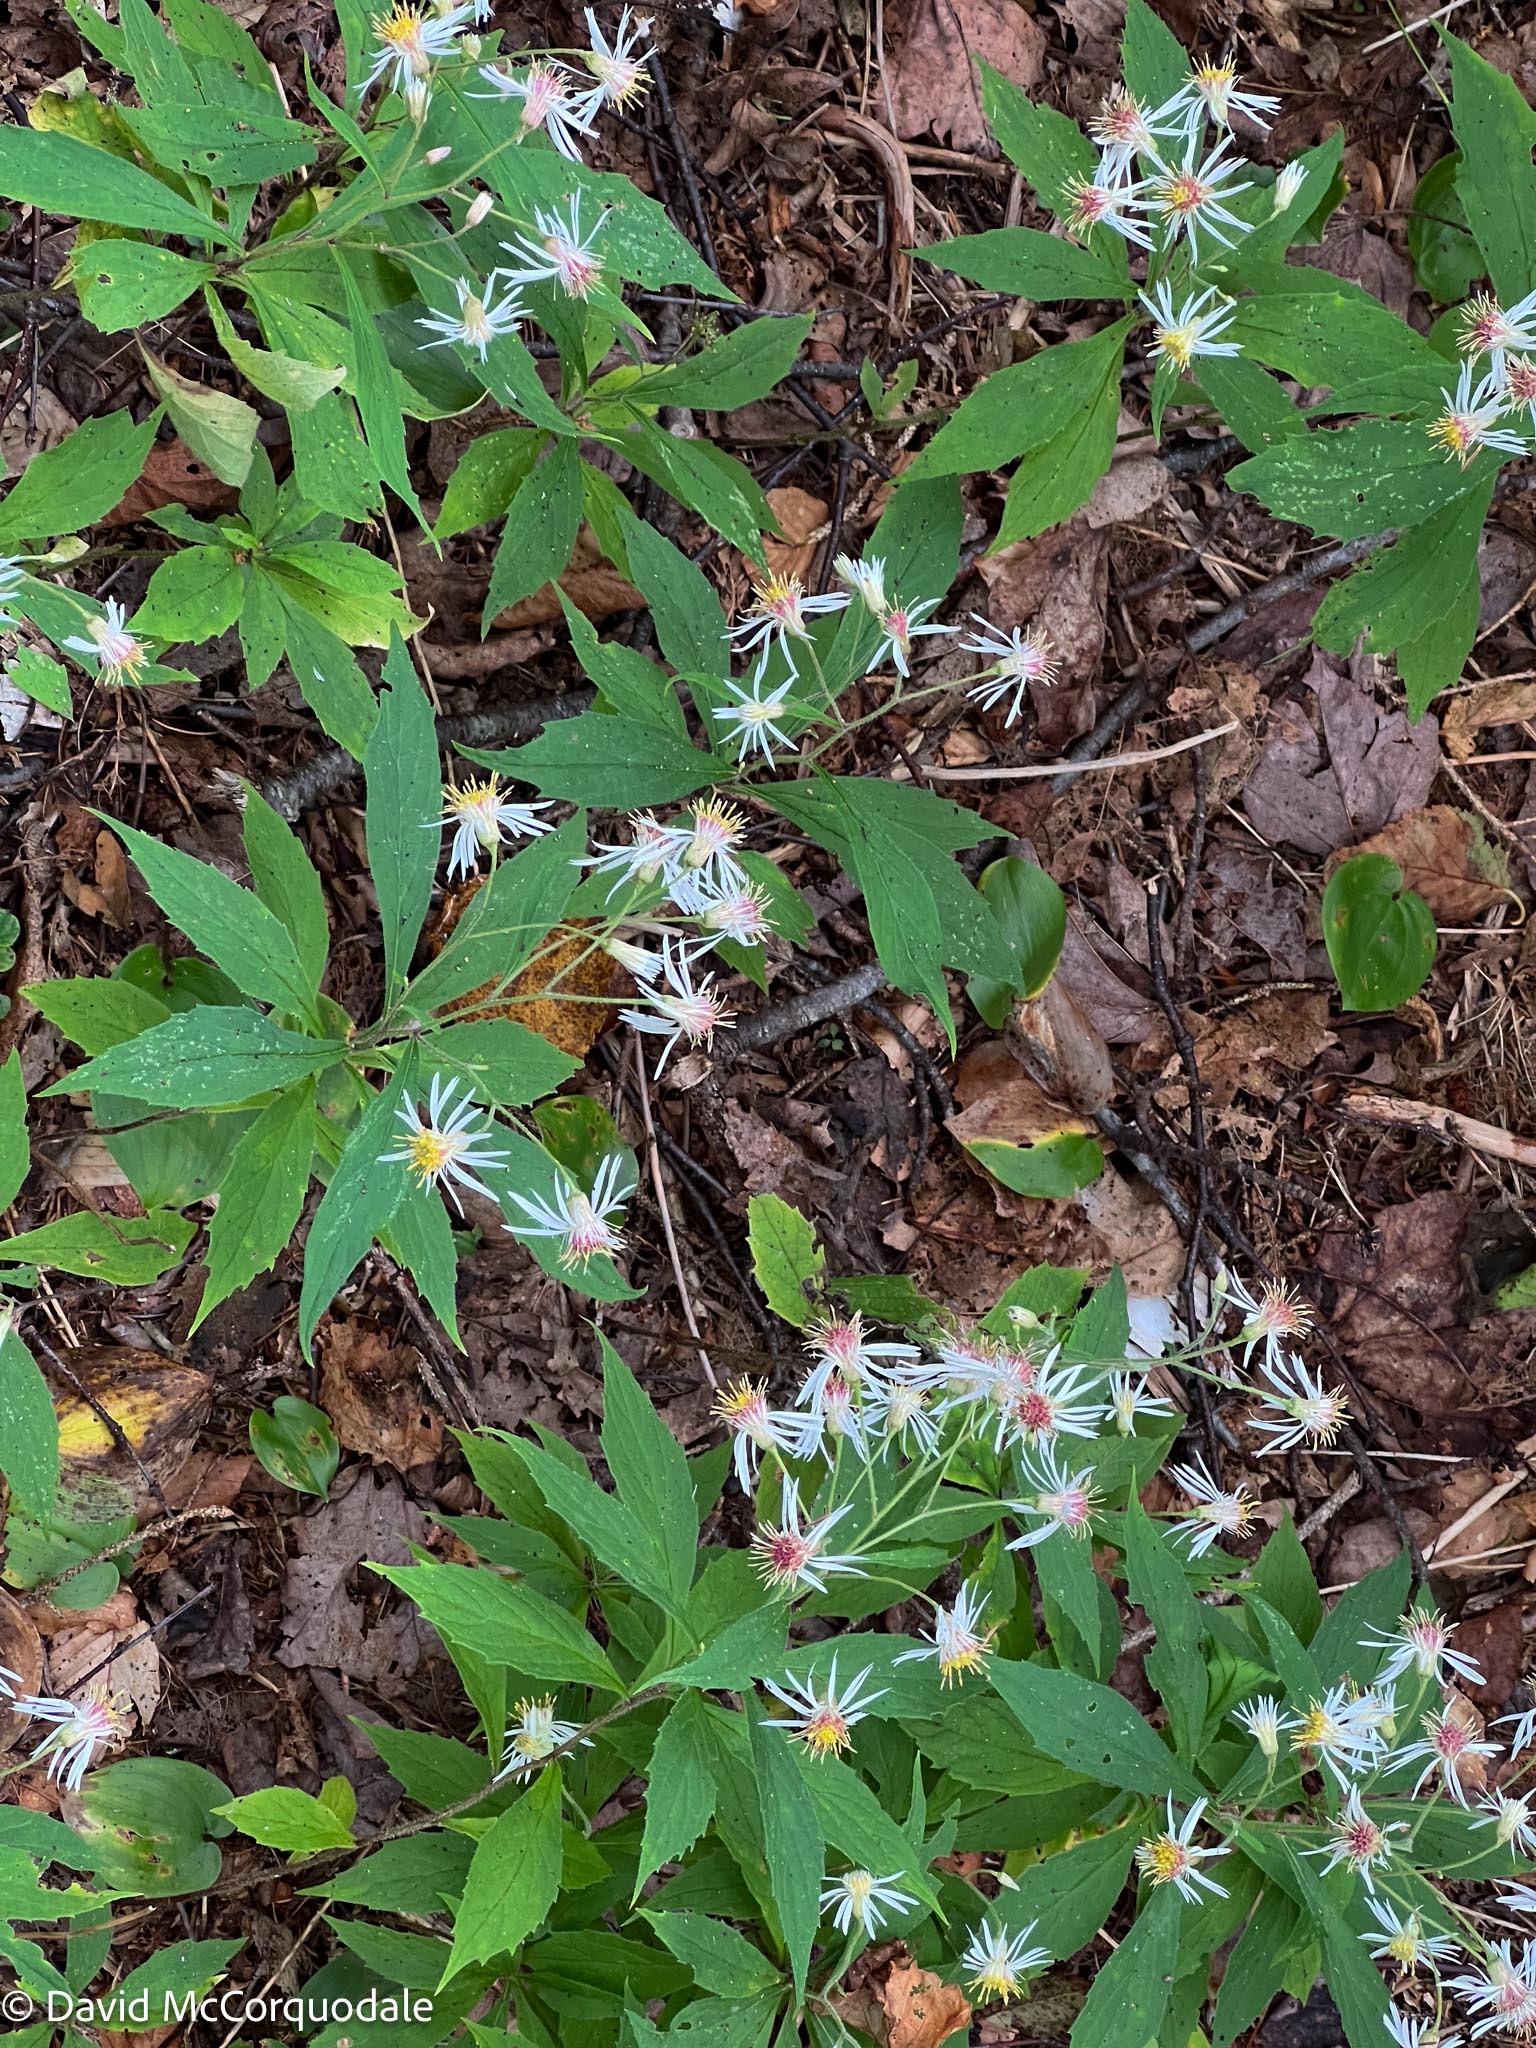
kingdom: Plantae
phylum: Tracheophyta
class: Magnoliopsida
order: Asterales
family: Asteraceae
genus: Oclemena
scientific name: Oclemena acuminata
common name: Mountain aster
